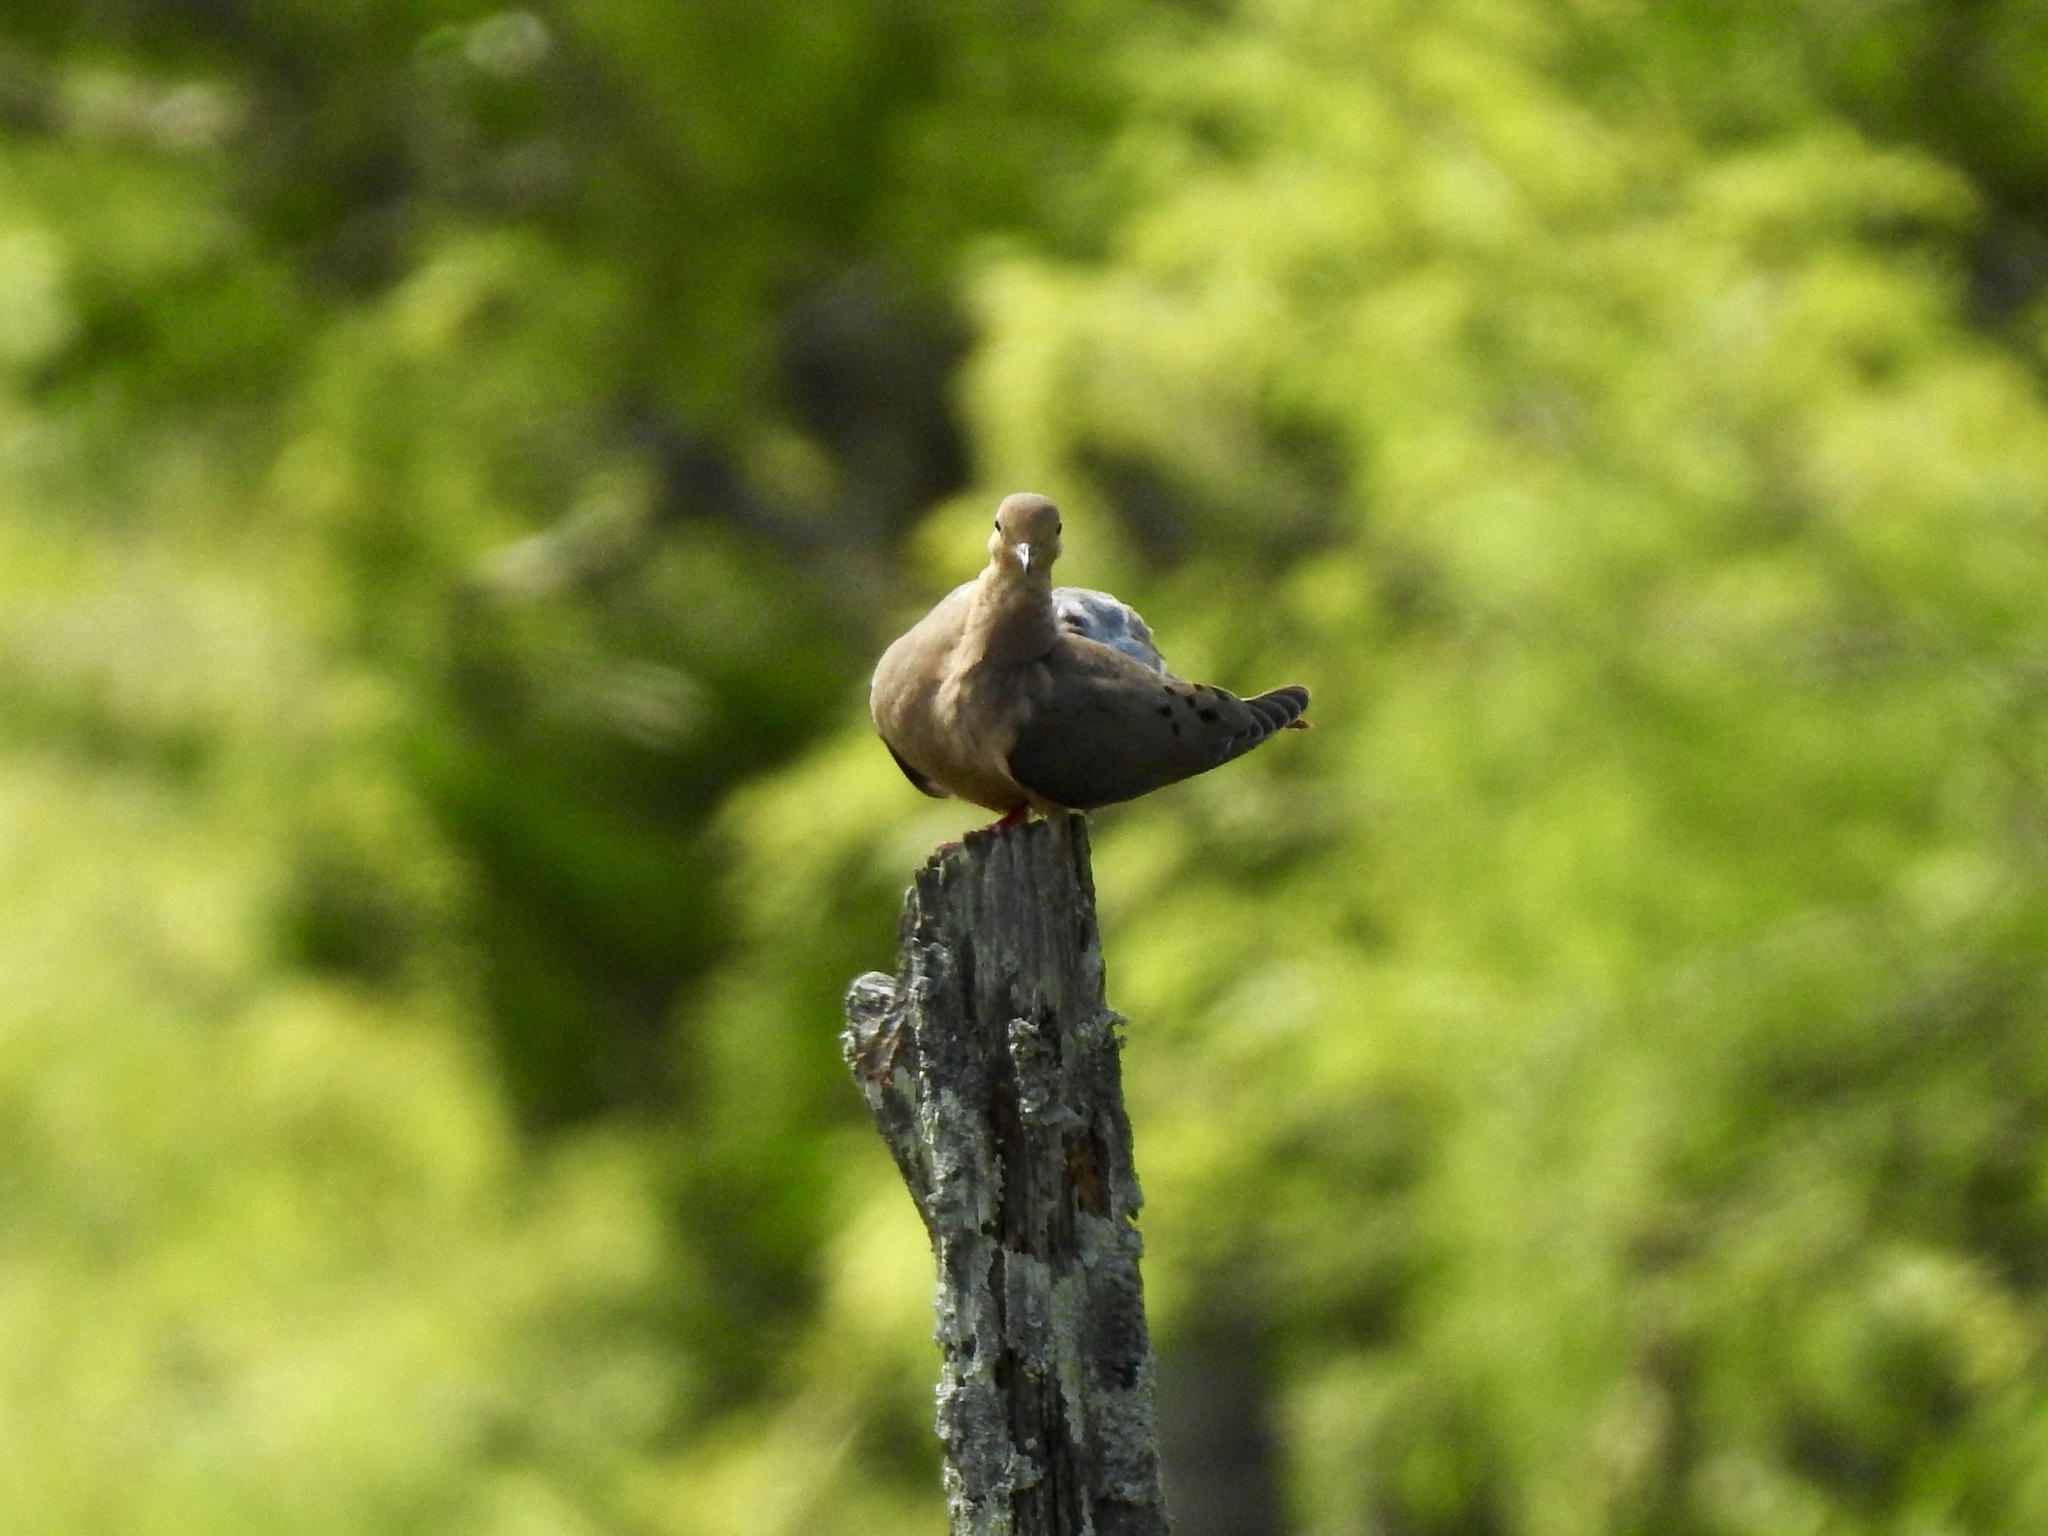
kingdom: Animalia
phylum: Chordata
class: Aves
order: Columbiformes
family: Columbidae
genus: Zenaida
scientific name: Zenaida macroura
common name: Mourning dove
